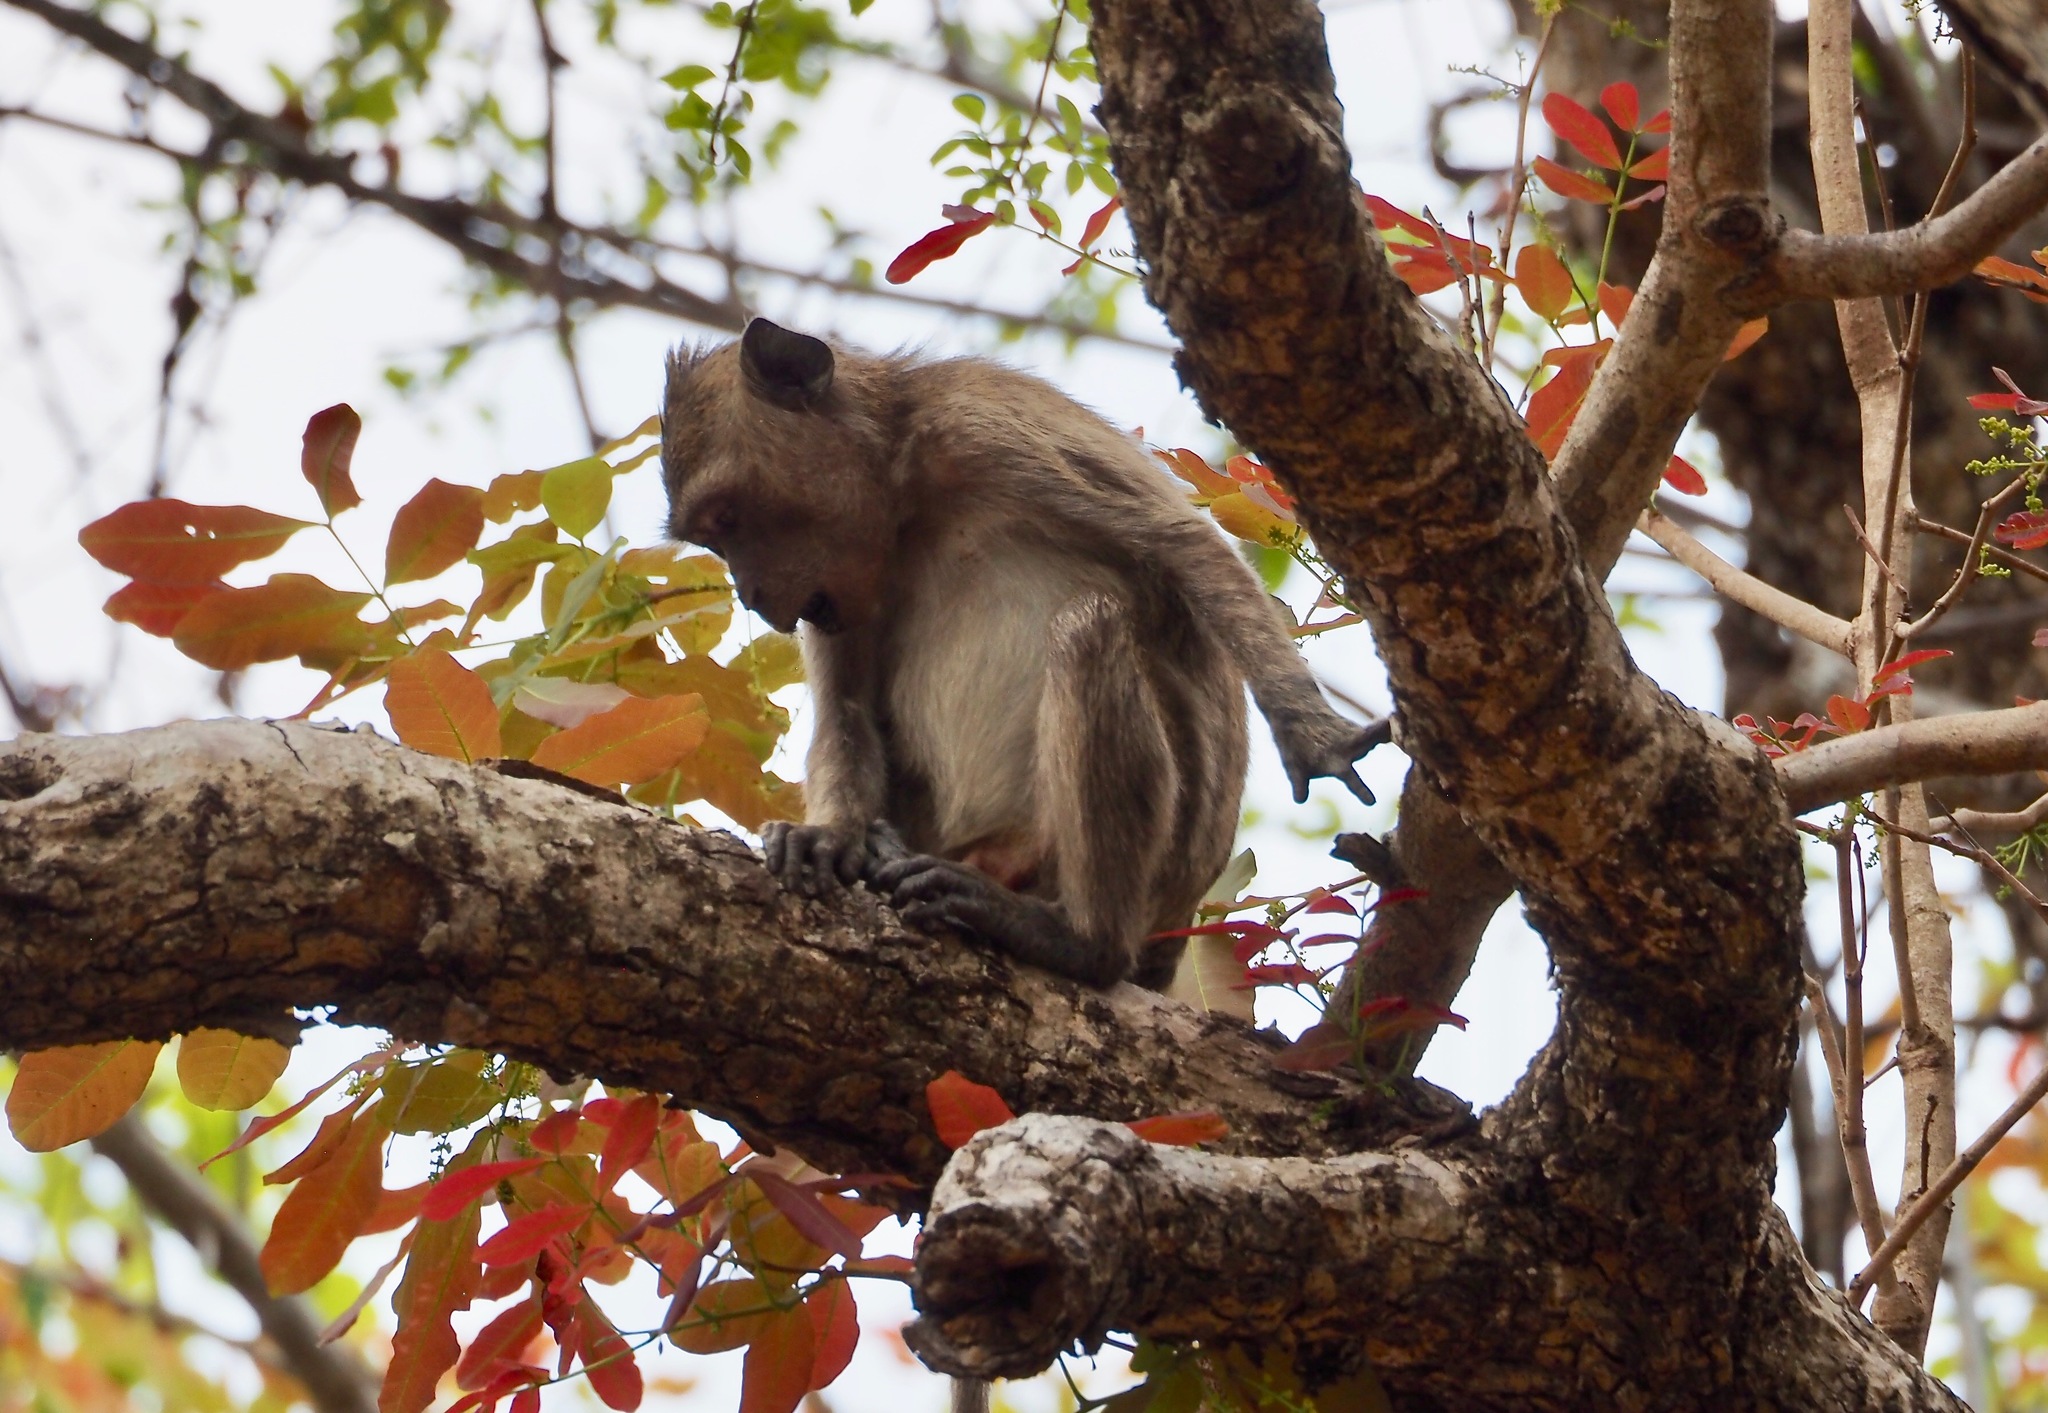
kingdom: Animalia
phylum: Chordata
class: Mammalia
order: Primates
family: Cercopithecidae
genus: Macaca
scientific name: Macaca fascicularis
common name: Crab-eating macaque
